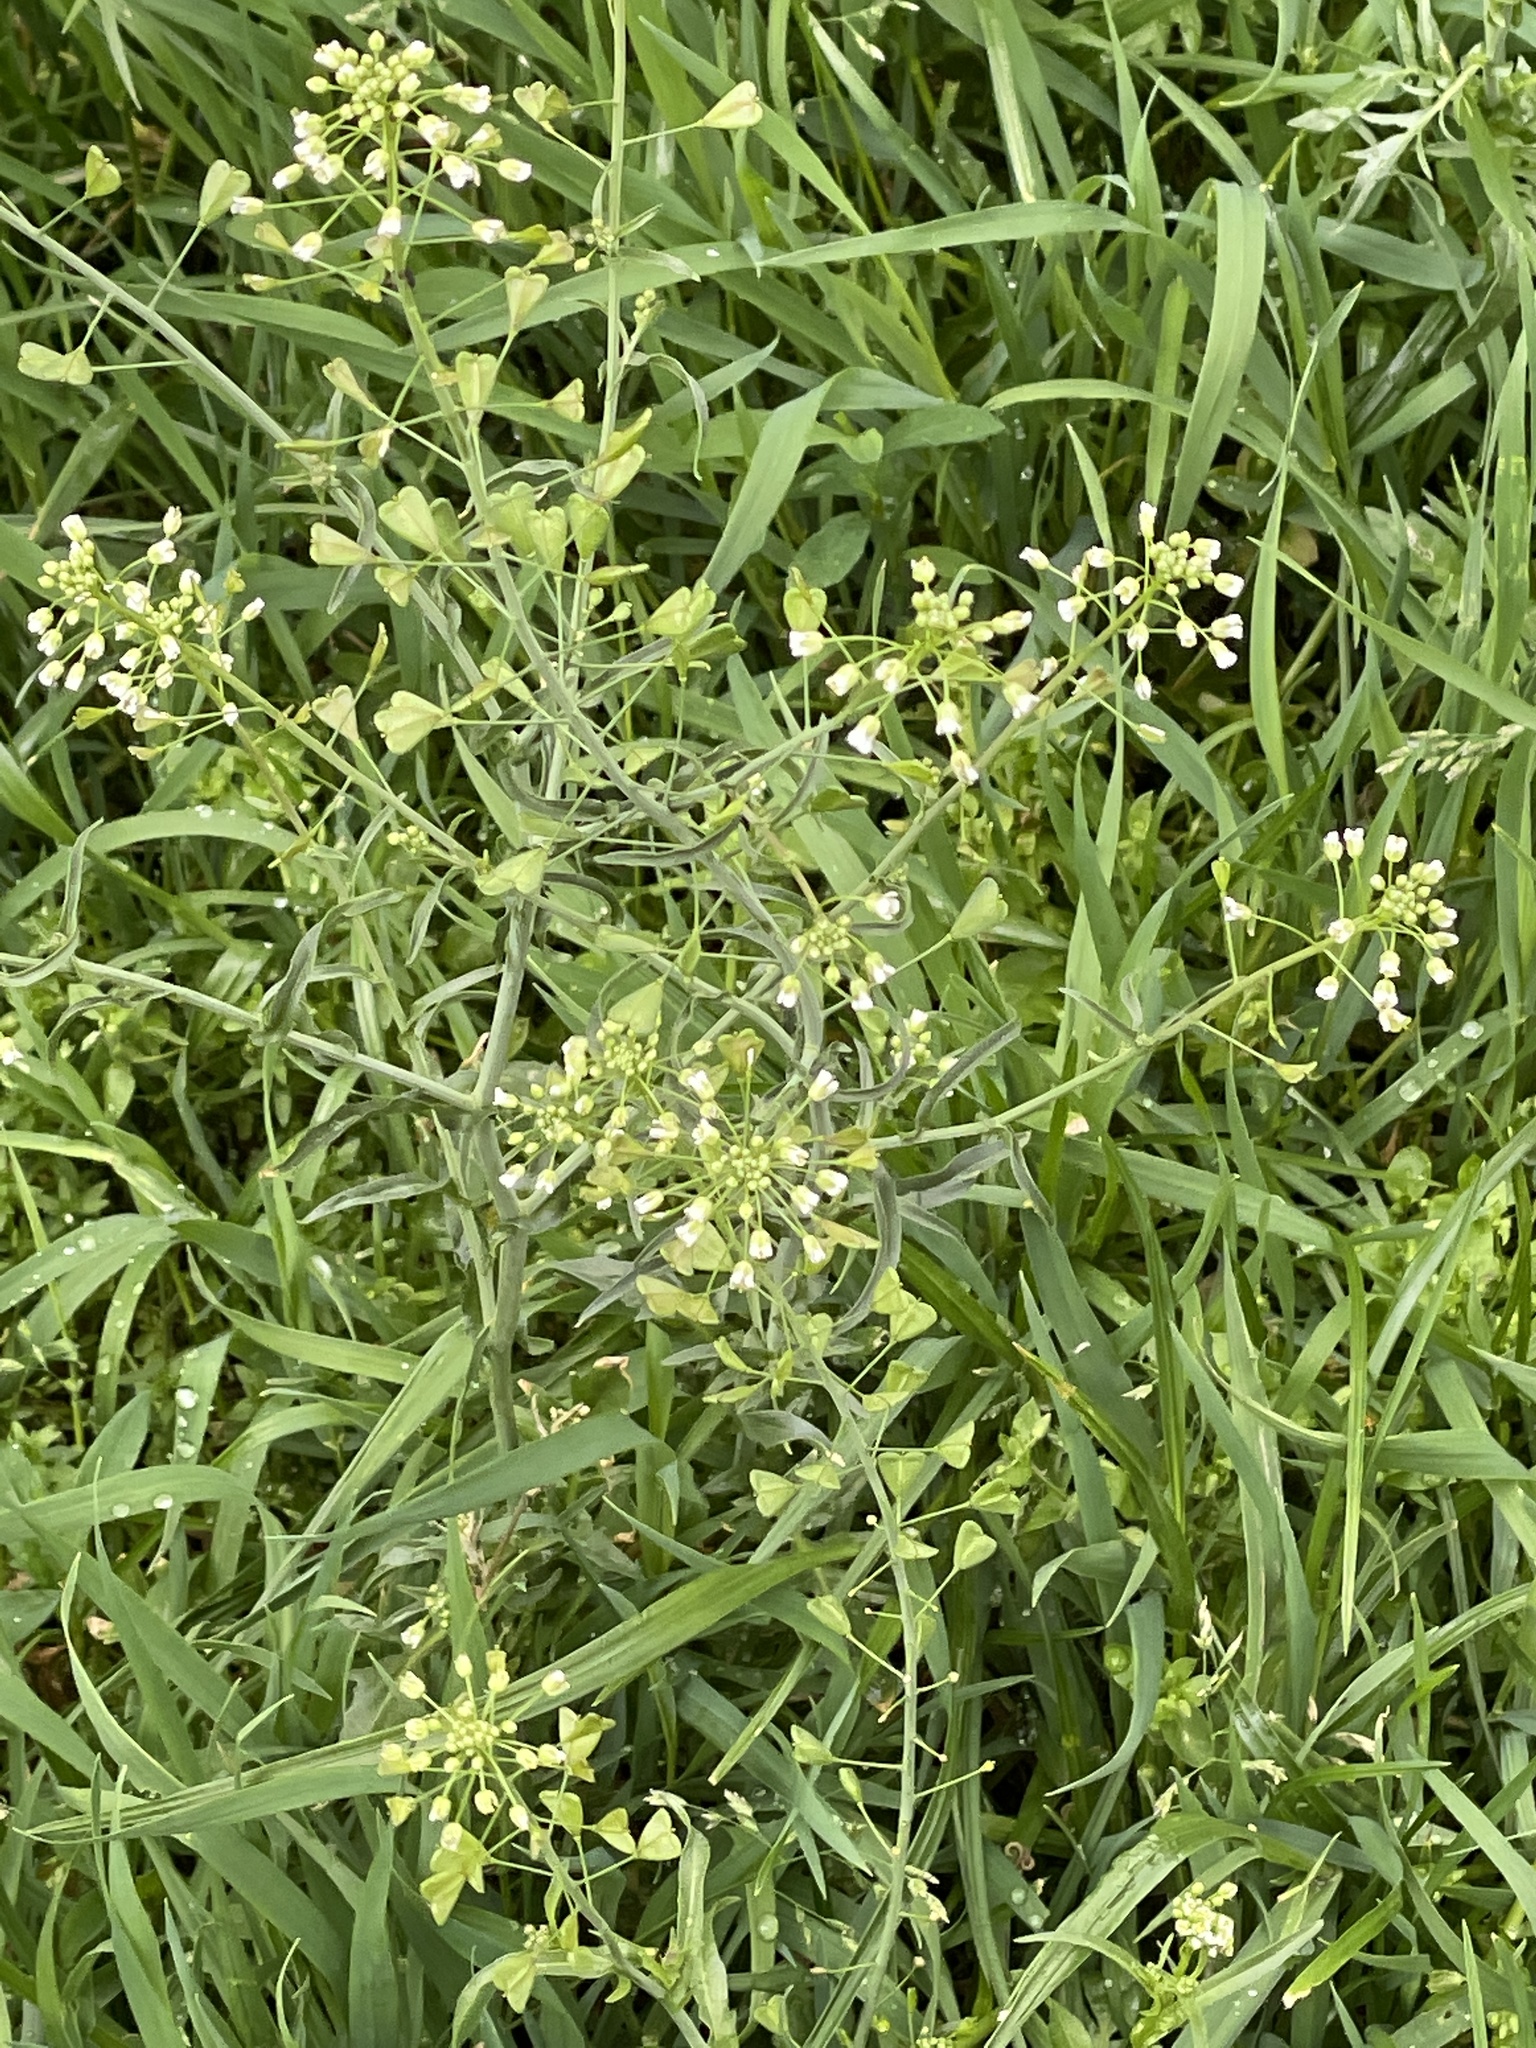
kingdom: Plantae
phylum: Tracheophyta
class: Magnoliopsida
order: Brassicales
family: Brassicaceae
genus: Capsella
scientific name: Capsella bursa-pastoris
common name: Shepherd's purse
